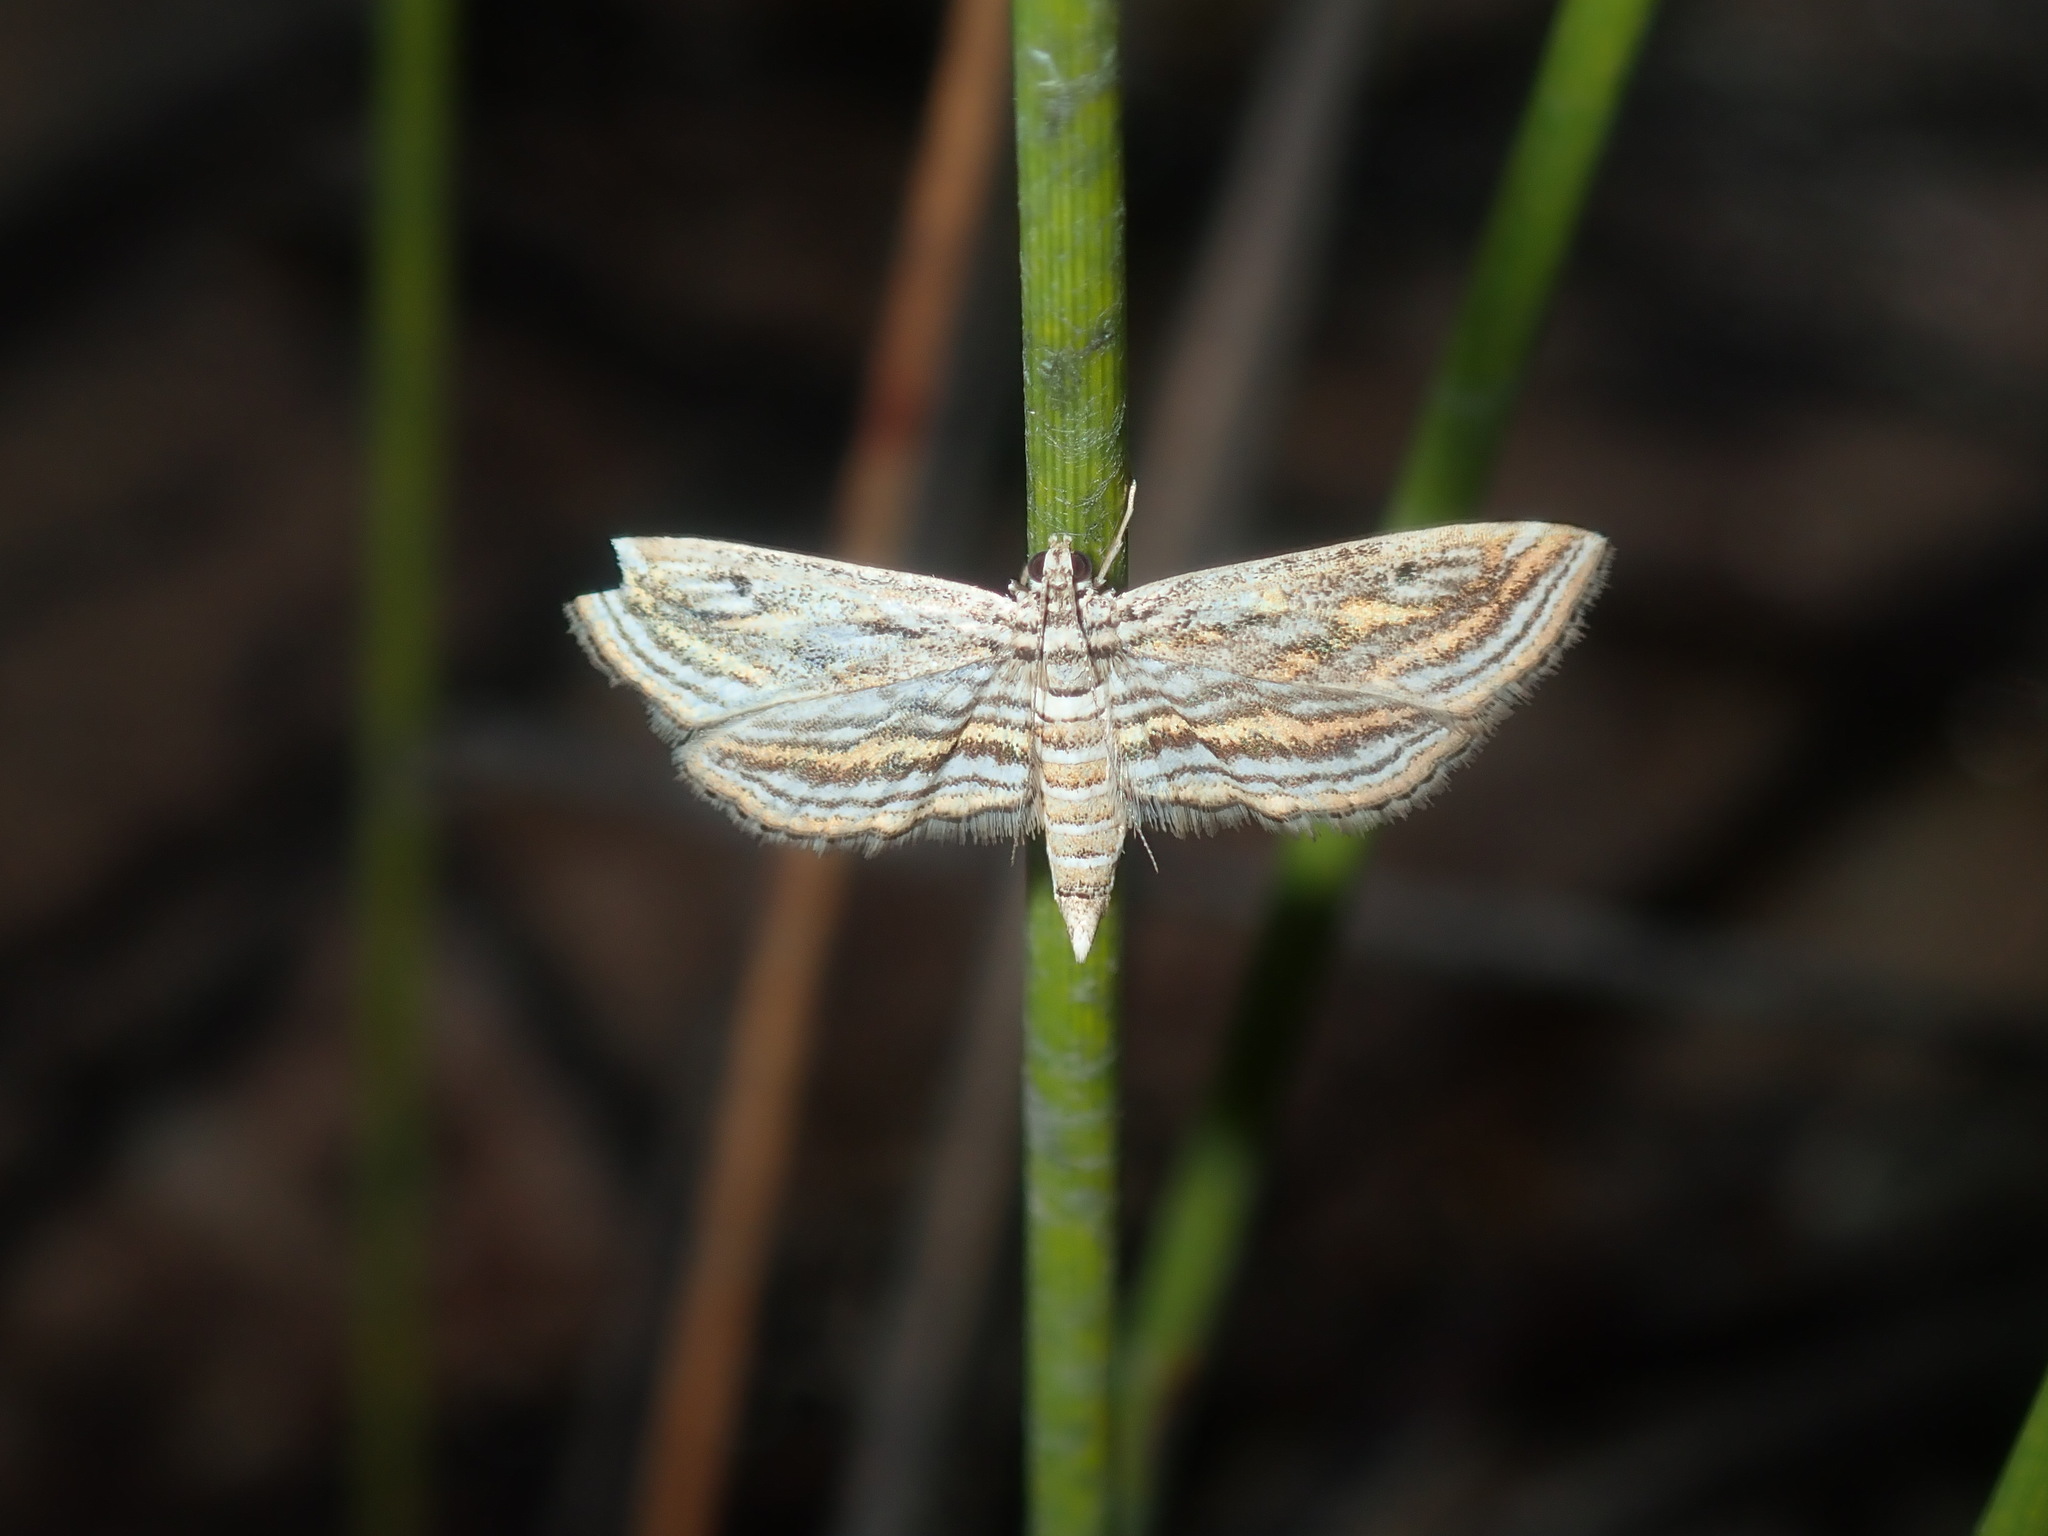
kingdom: Animalia
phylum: Arthropoda
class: Insecta
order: Lepidoptera
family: Crambidae
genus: Parapoynx
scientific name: Parapoynx fluctuosalis
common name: Moth
